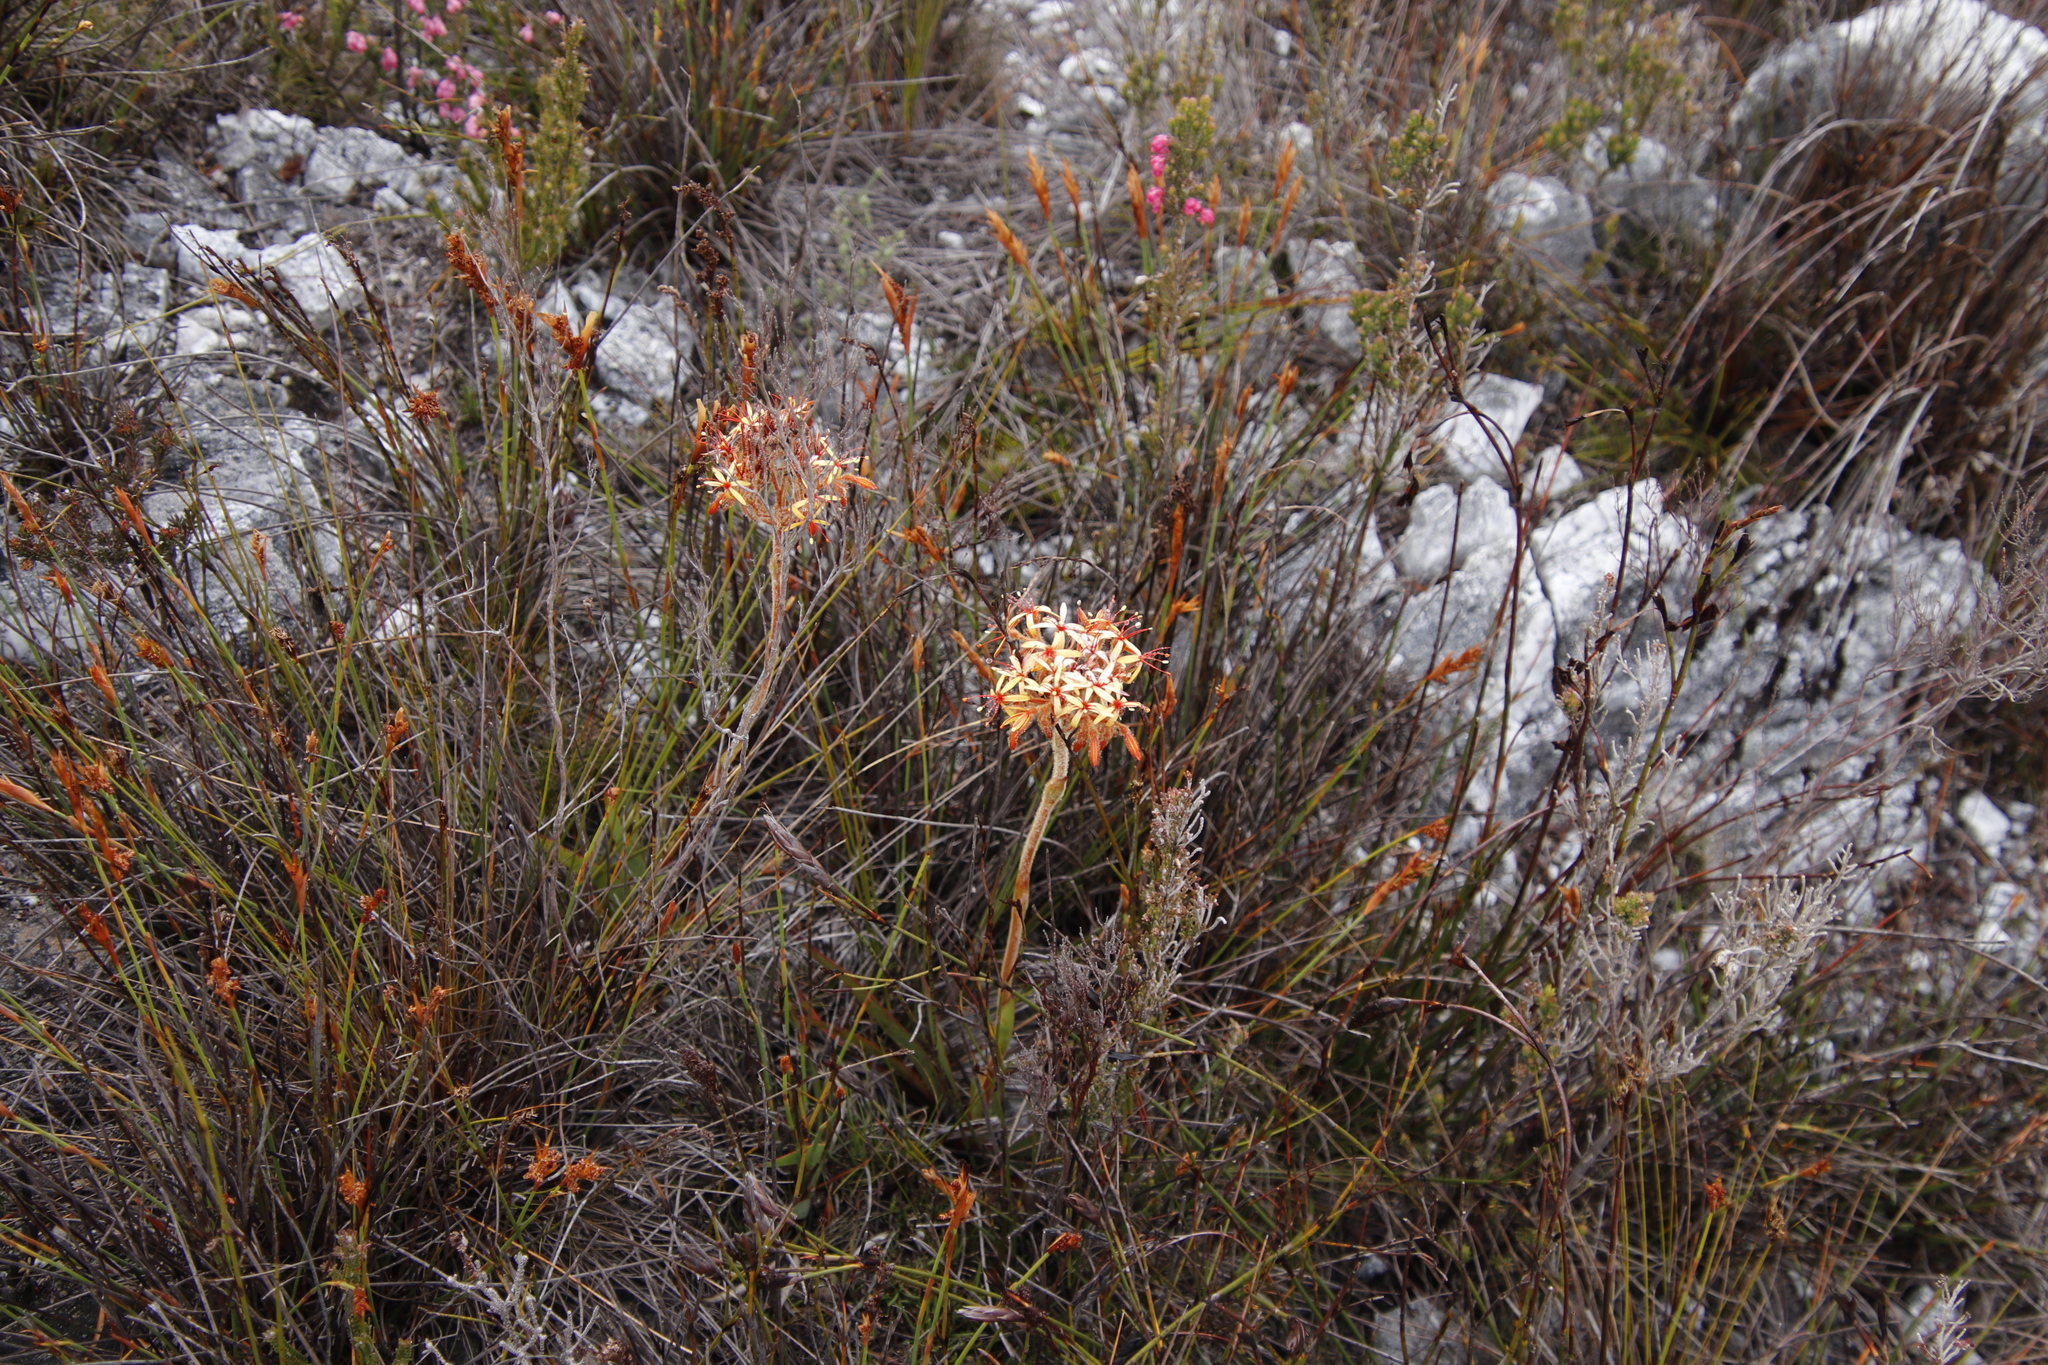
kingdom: Plantae
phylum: Tracheophyta
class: Liliopsida
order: Commelinales
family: Haemodoraceae
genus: Dilatris
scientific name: Dilatris viscosa
